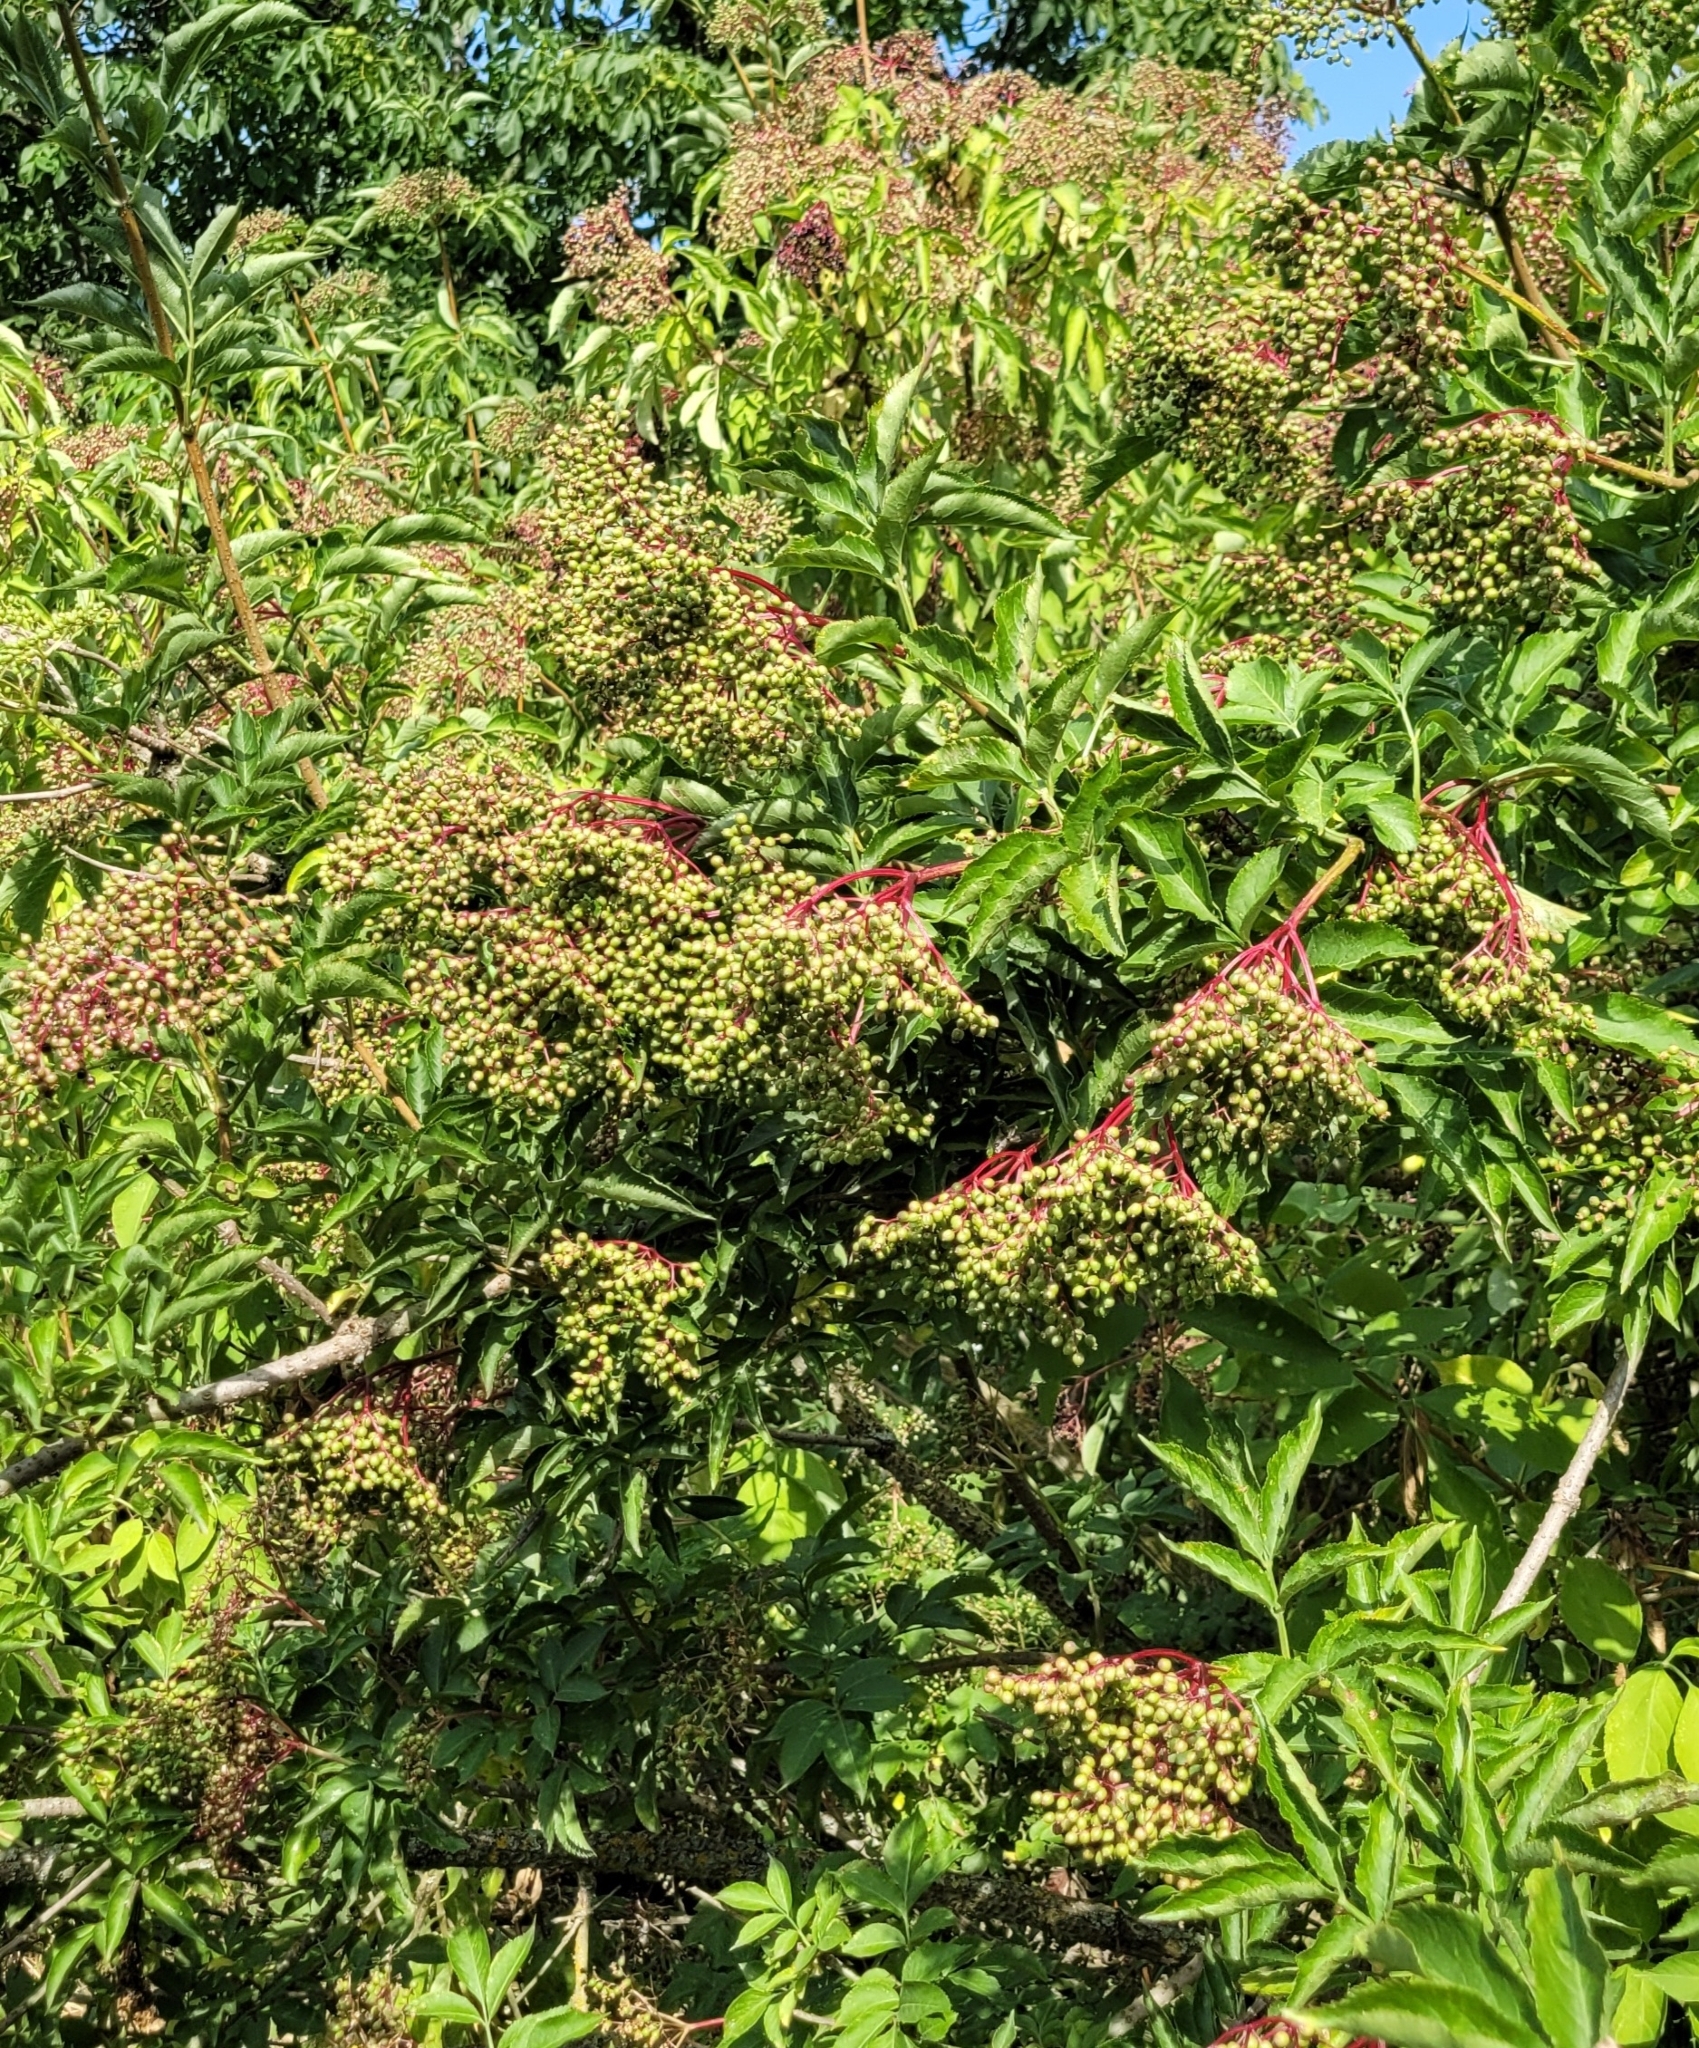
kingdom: Plantae
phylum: Tracheophyta
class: Magnoliopsida
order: Dipsacales
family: Viburnaceae
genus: Sambucus
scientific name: Sambucus nigra
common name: Elder
